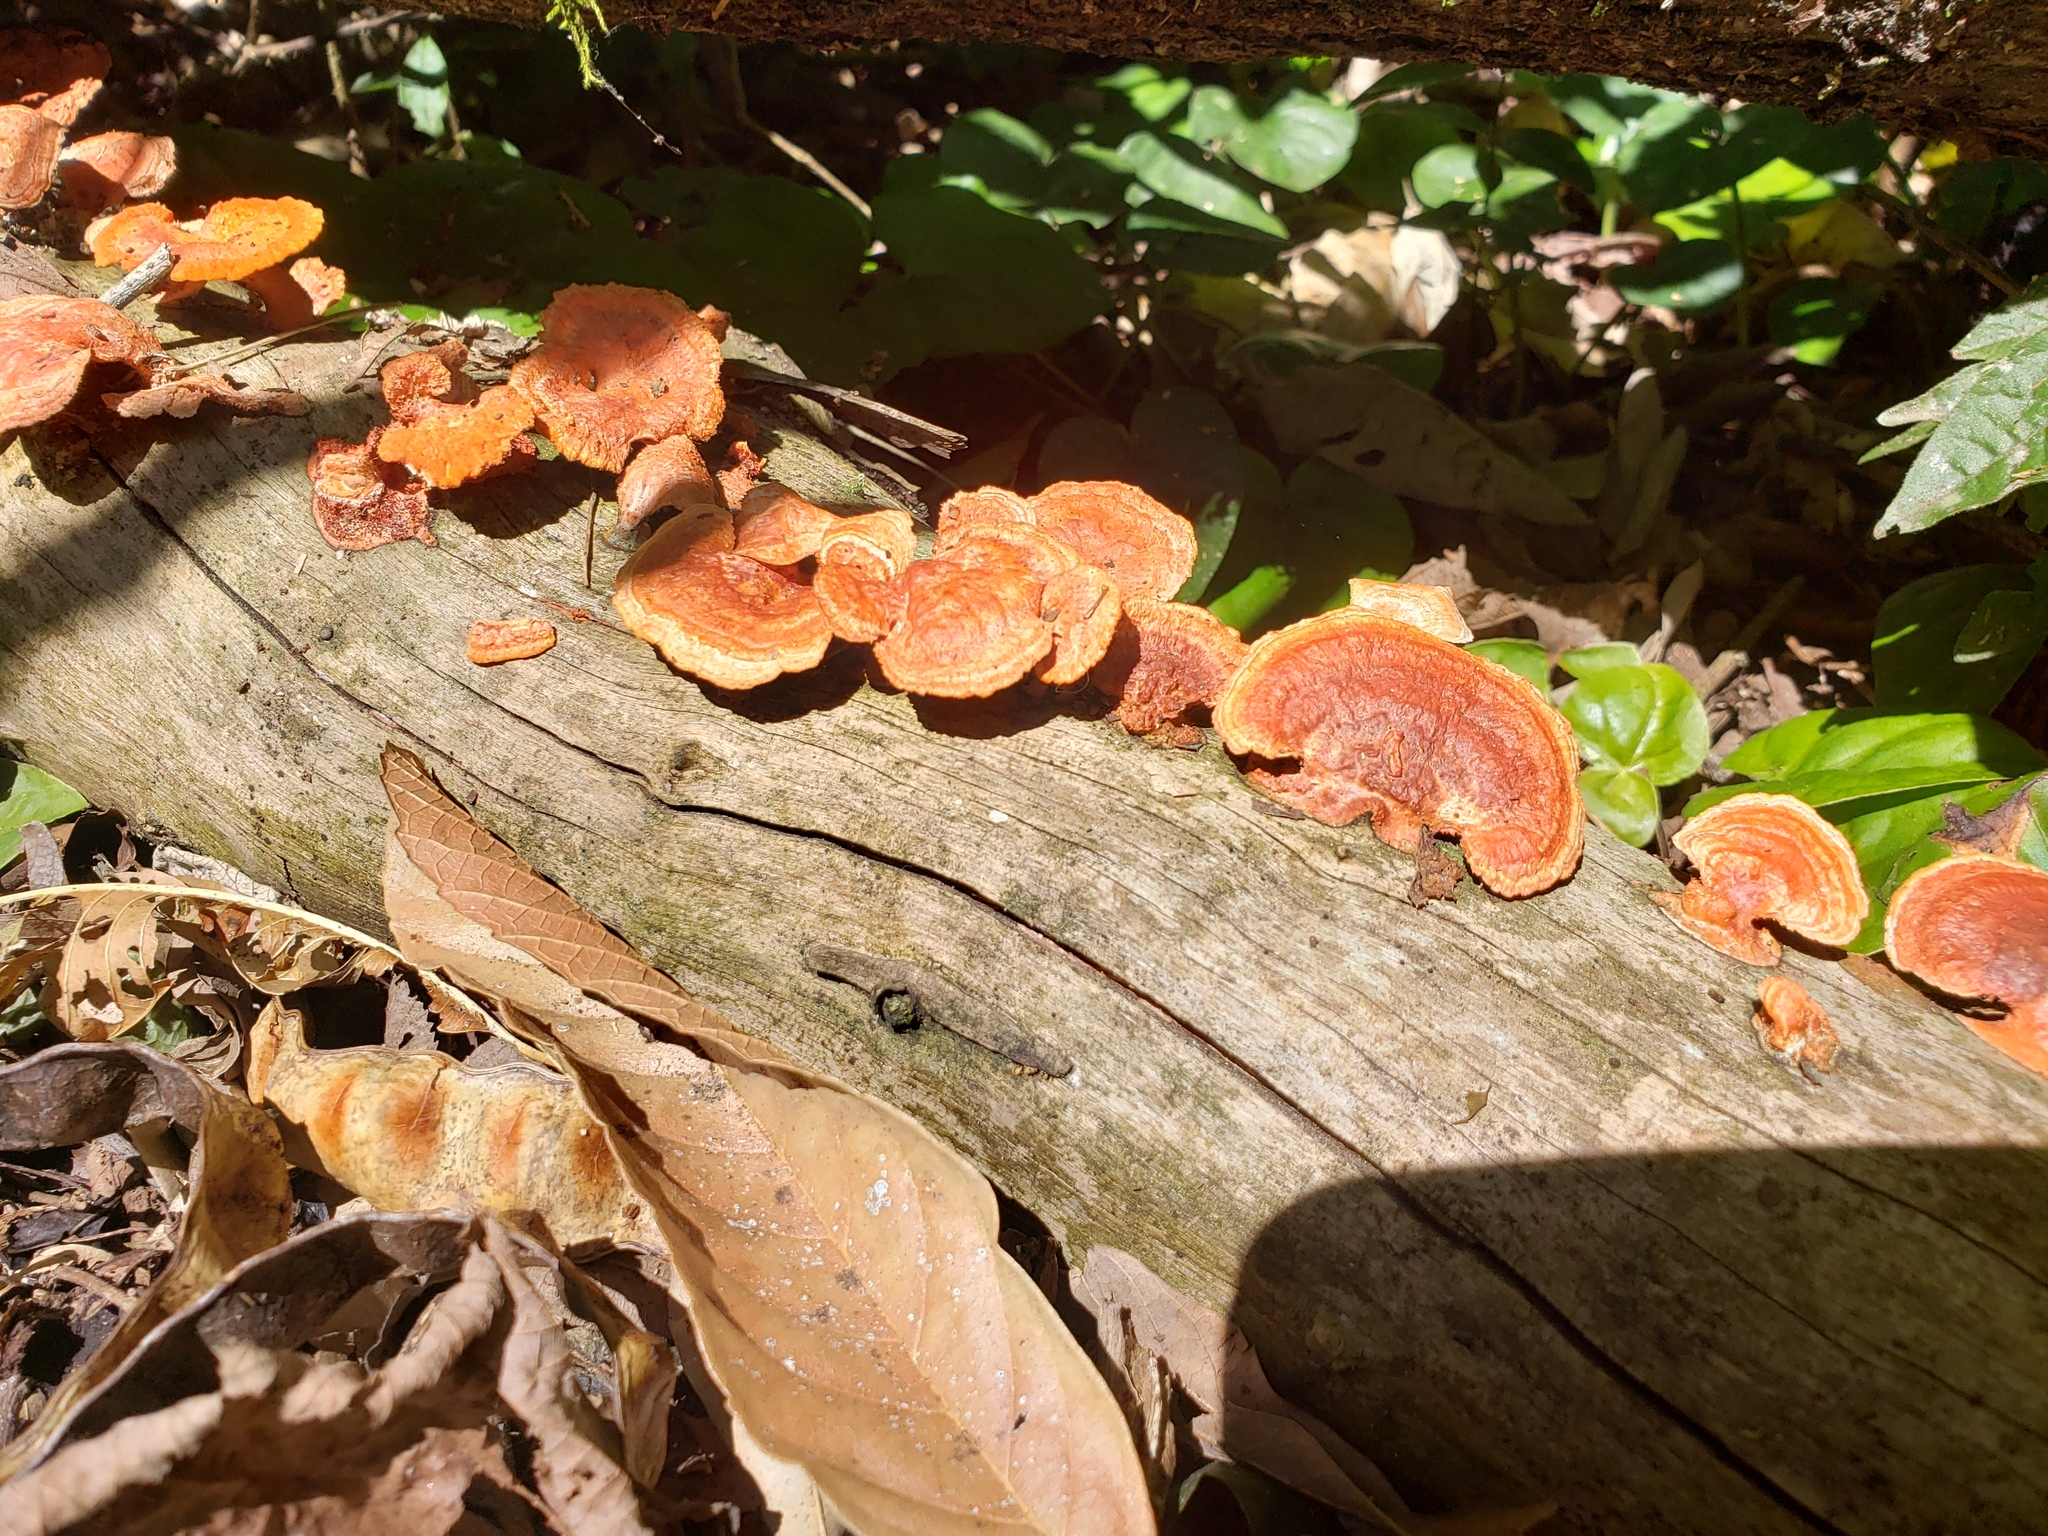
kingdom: Fungi
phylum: Basidiomycota
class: Agaricomycetes
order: Polyporales
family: Polyporaceae
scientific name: Polyporaceae
